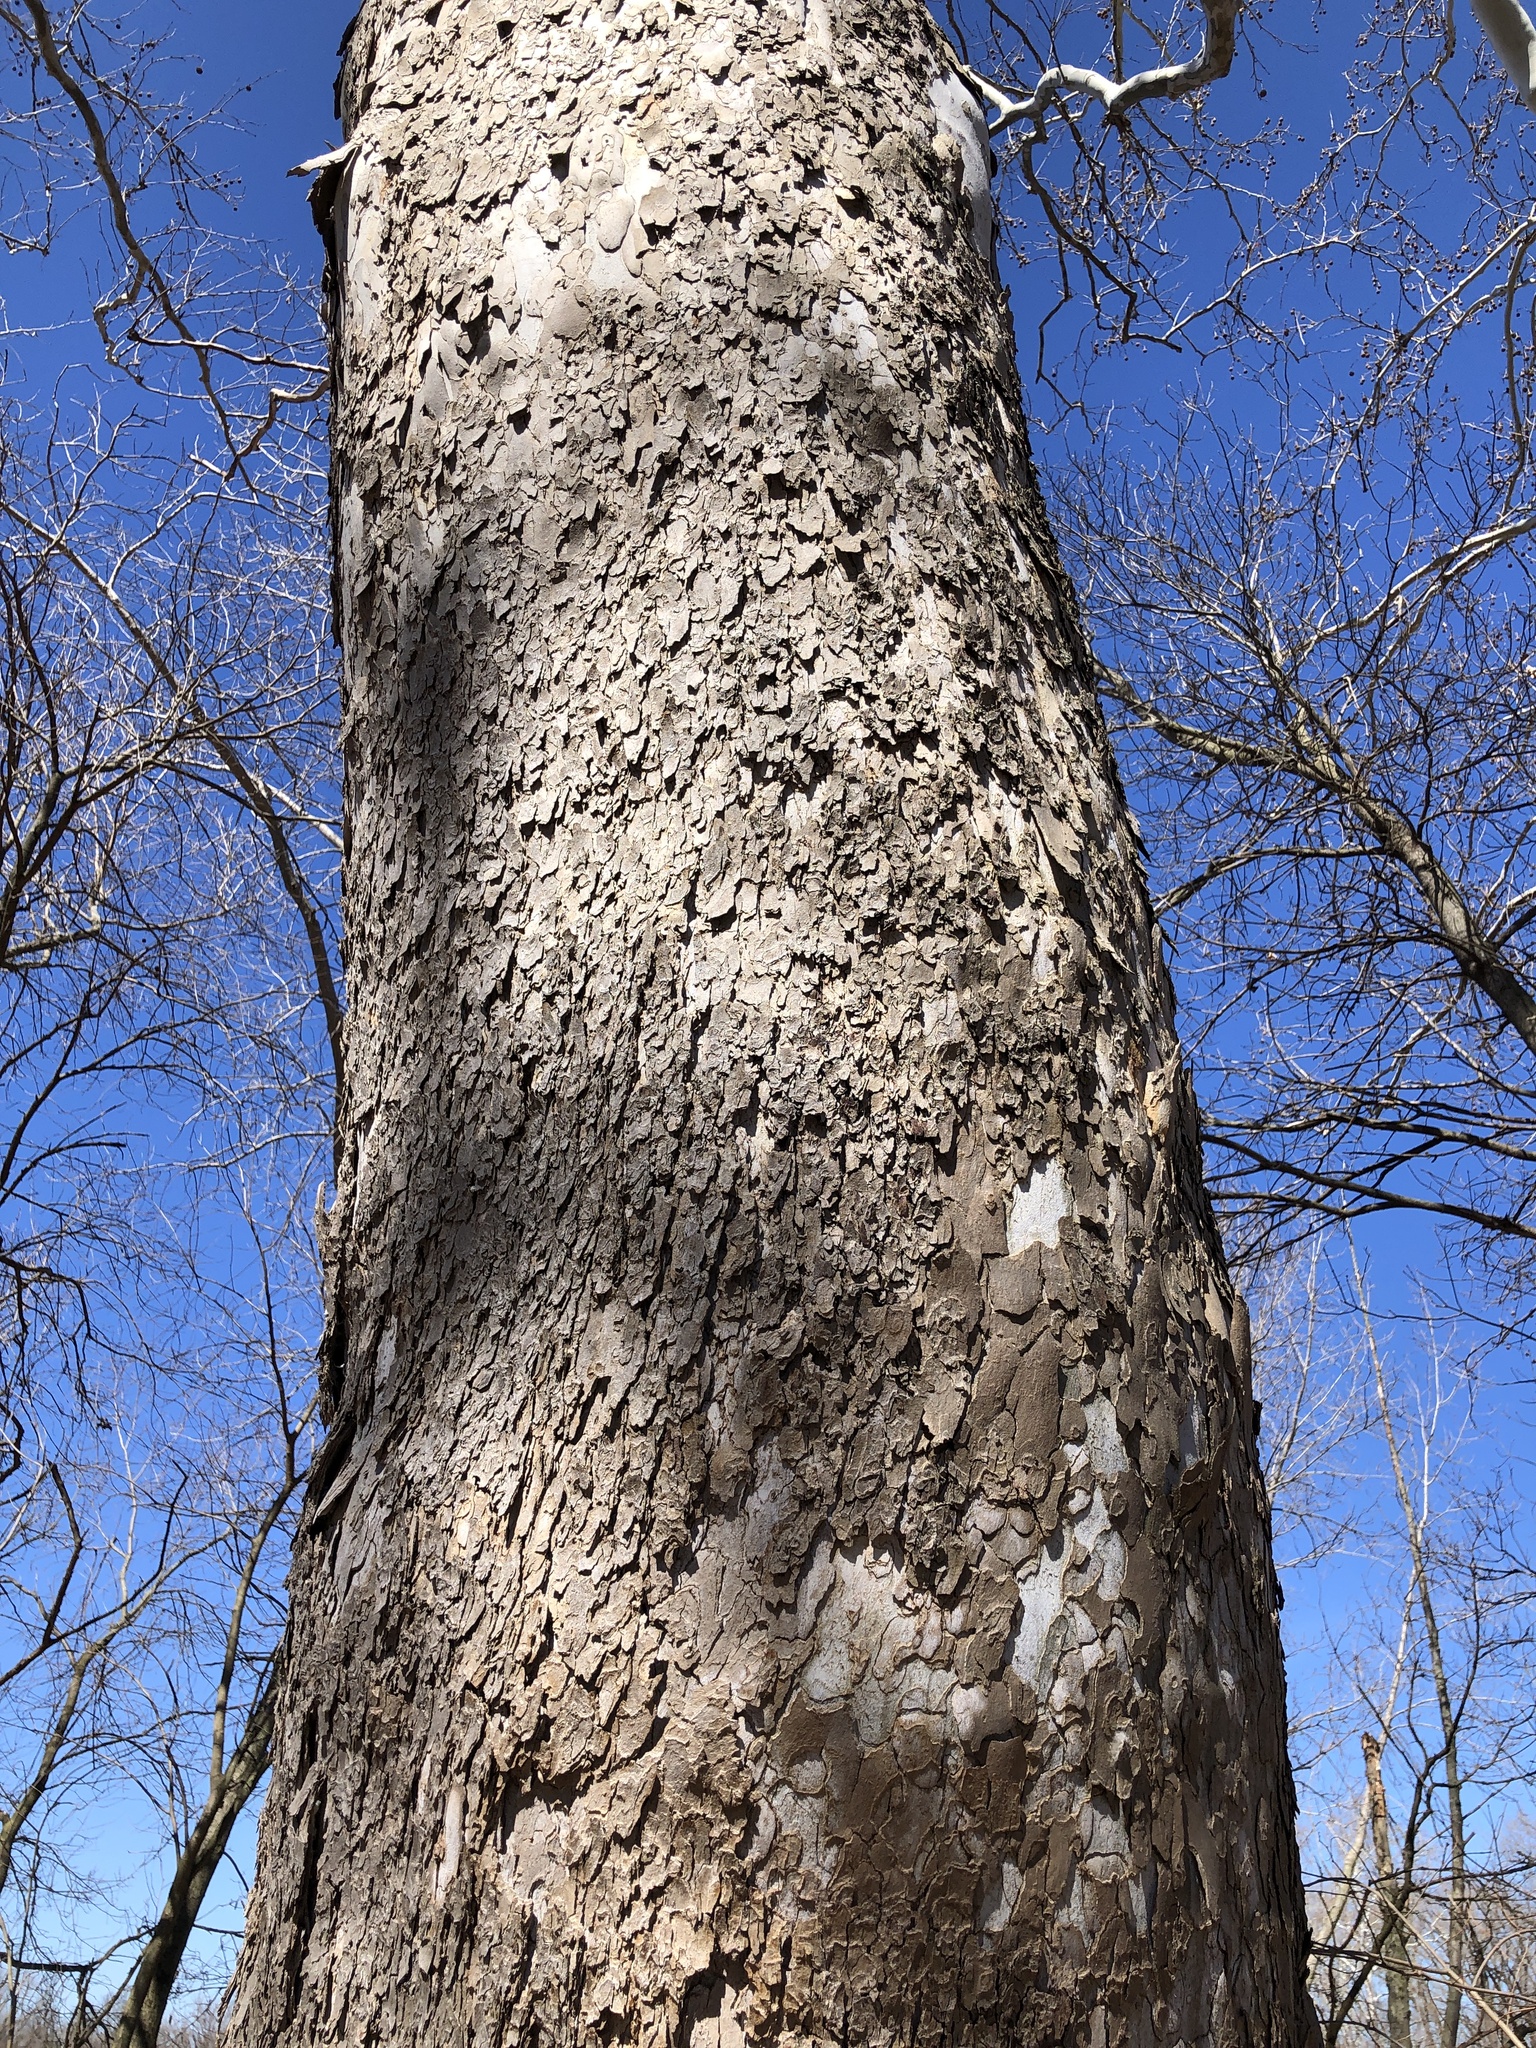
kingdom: Plantae
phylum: Tracheophyta
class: Magnoliopsida
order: Proteales
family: Platanaceae
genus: Platanus
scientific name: Platanus occidentalis
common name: American sycamore
